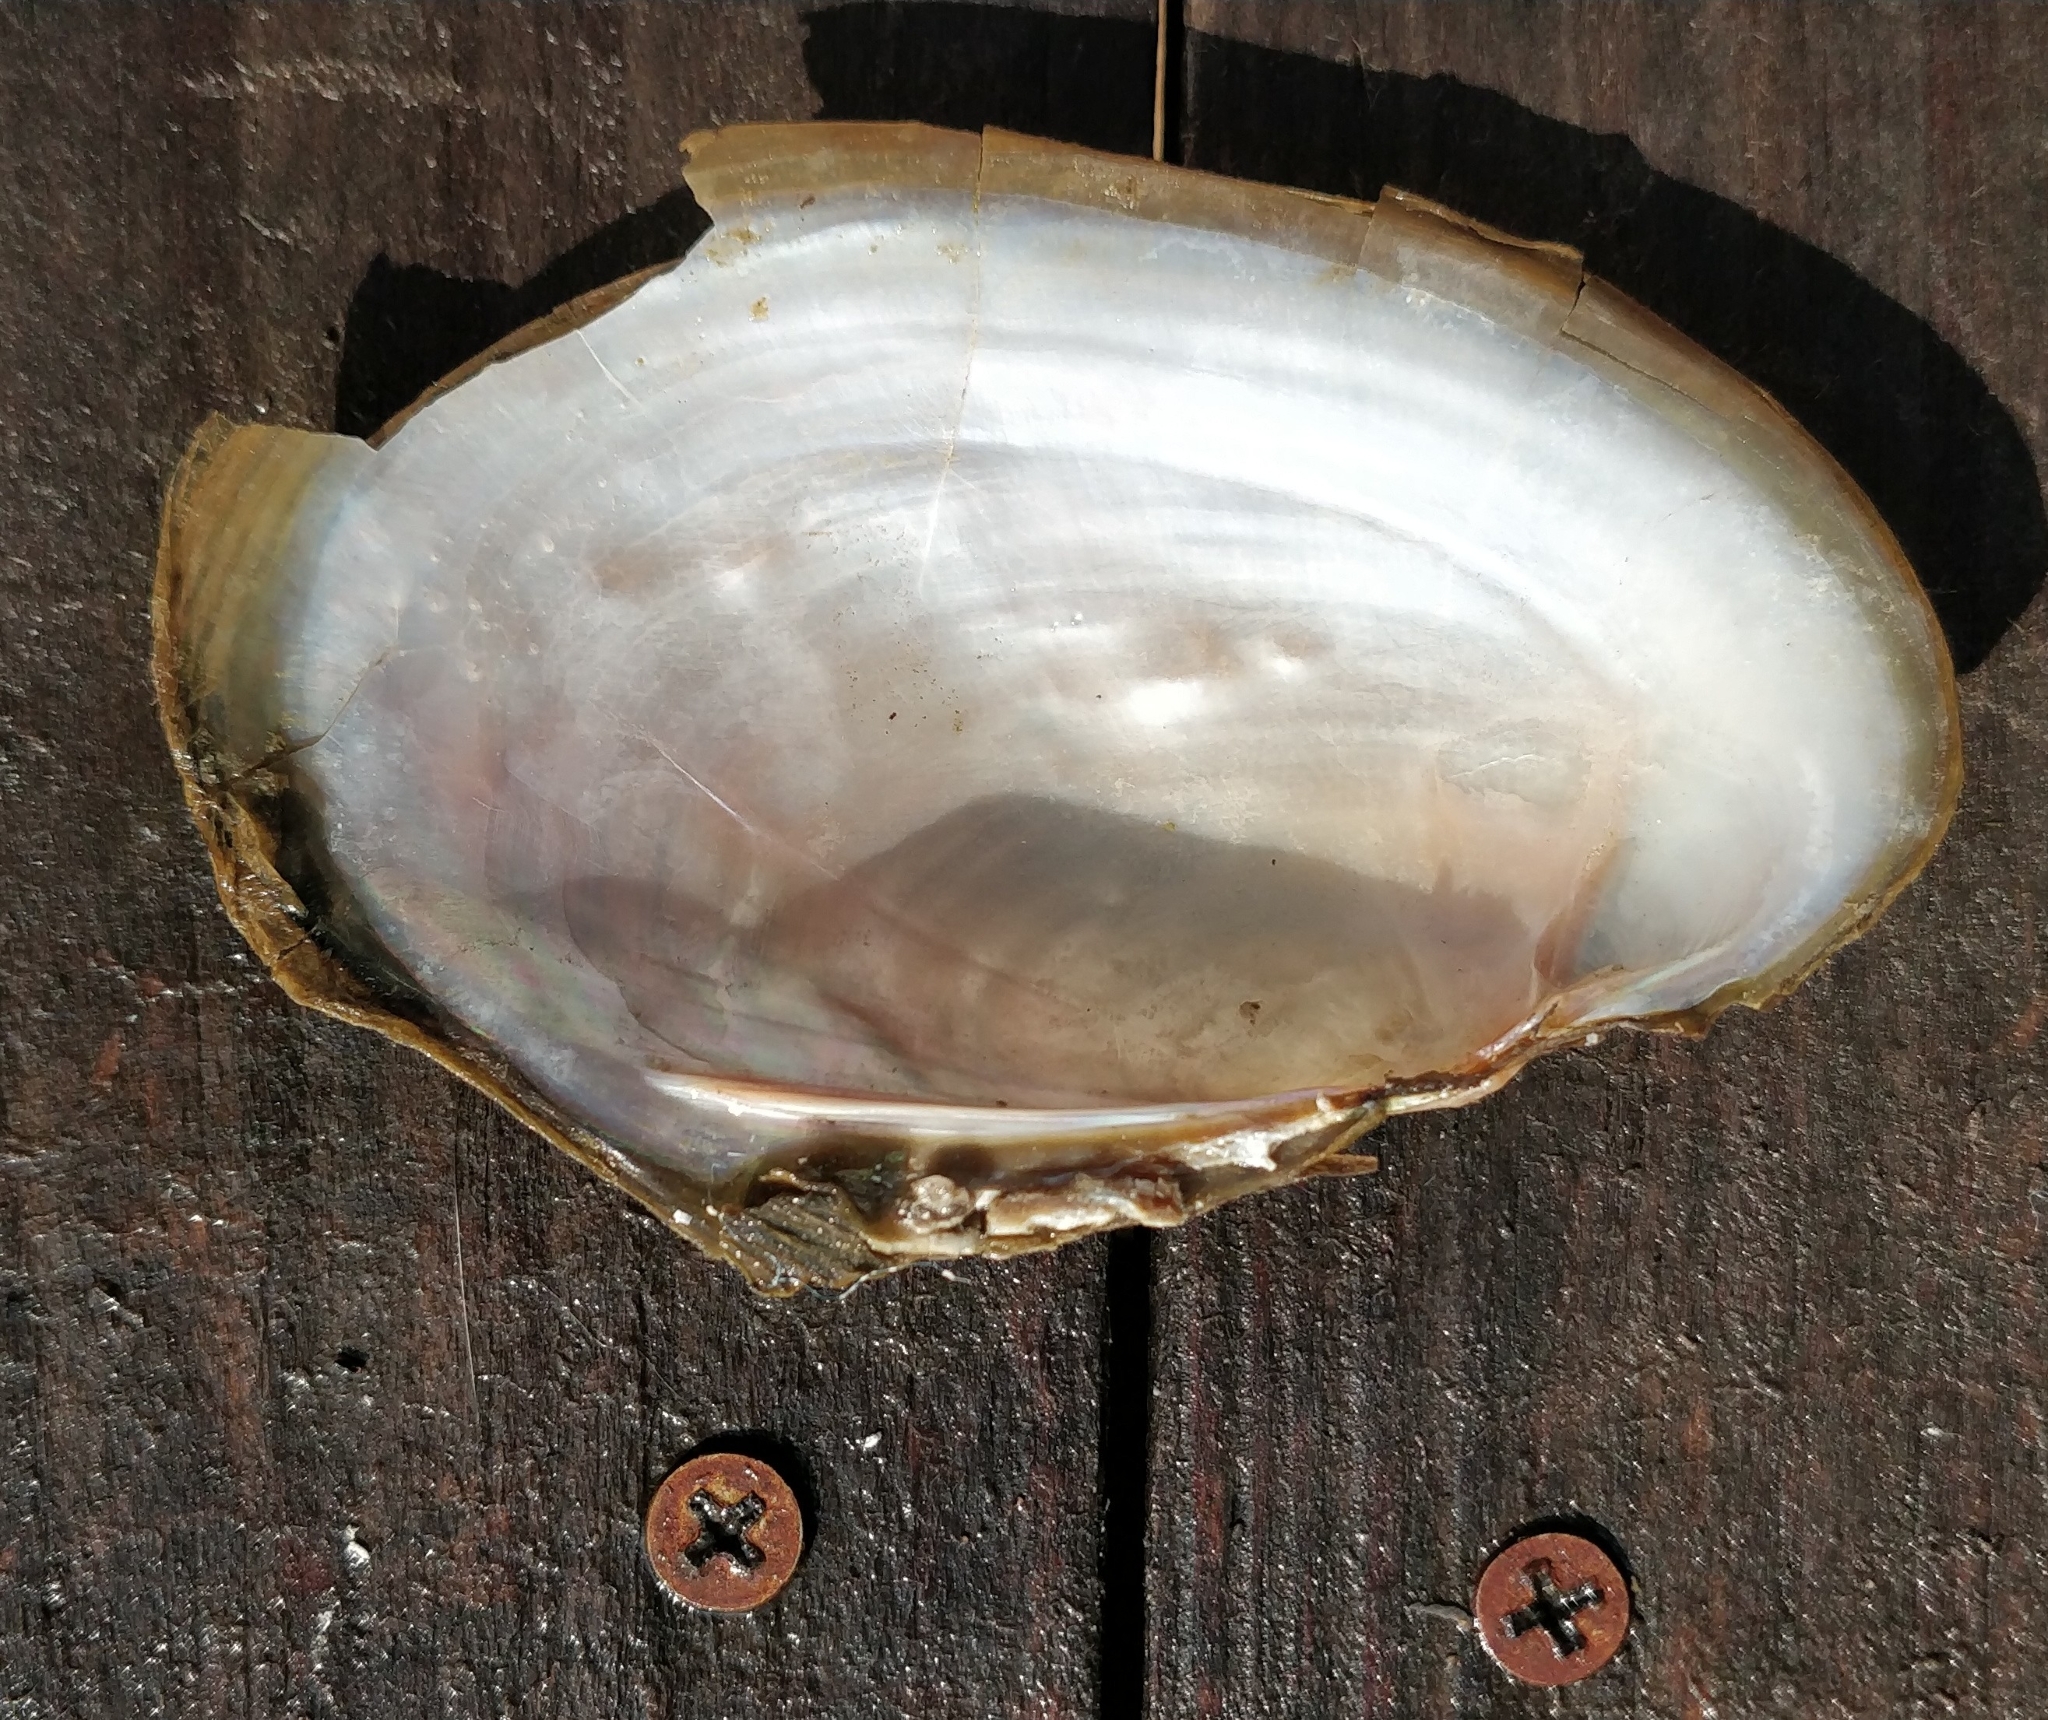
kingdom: Animalia
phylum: Mollusca
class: Bivalvia
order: Unionida
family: Unionidae
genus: Potamilus
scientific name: Potamilus fragilis
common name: Fragile papershell
